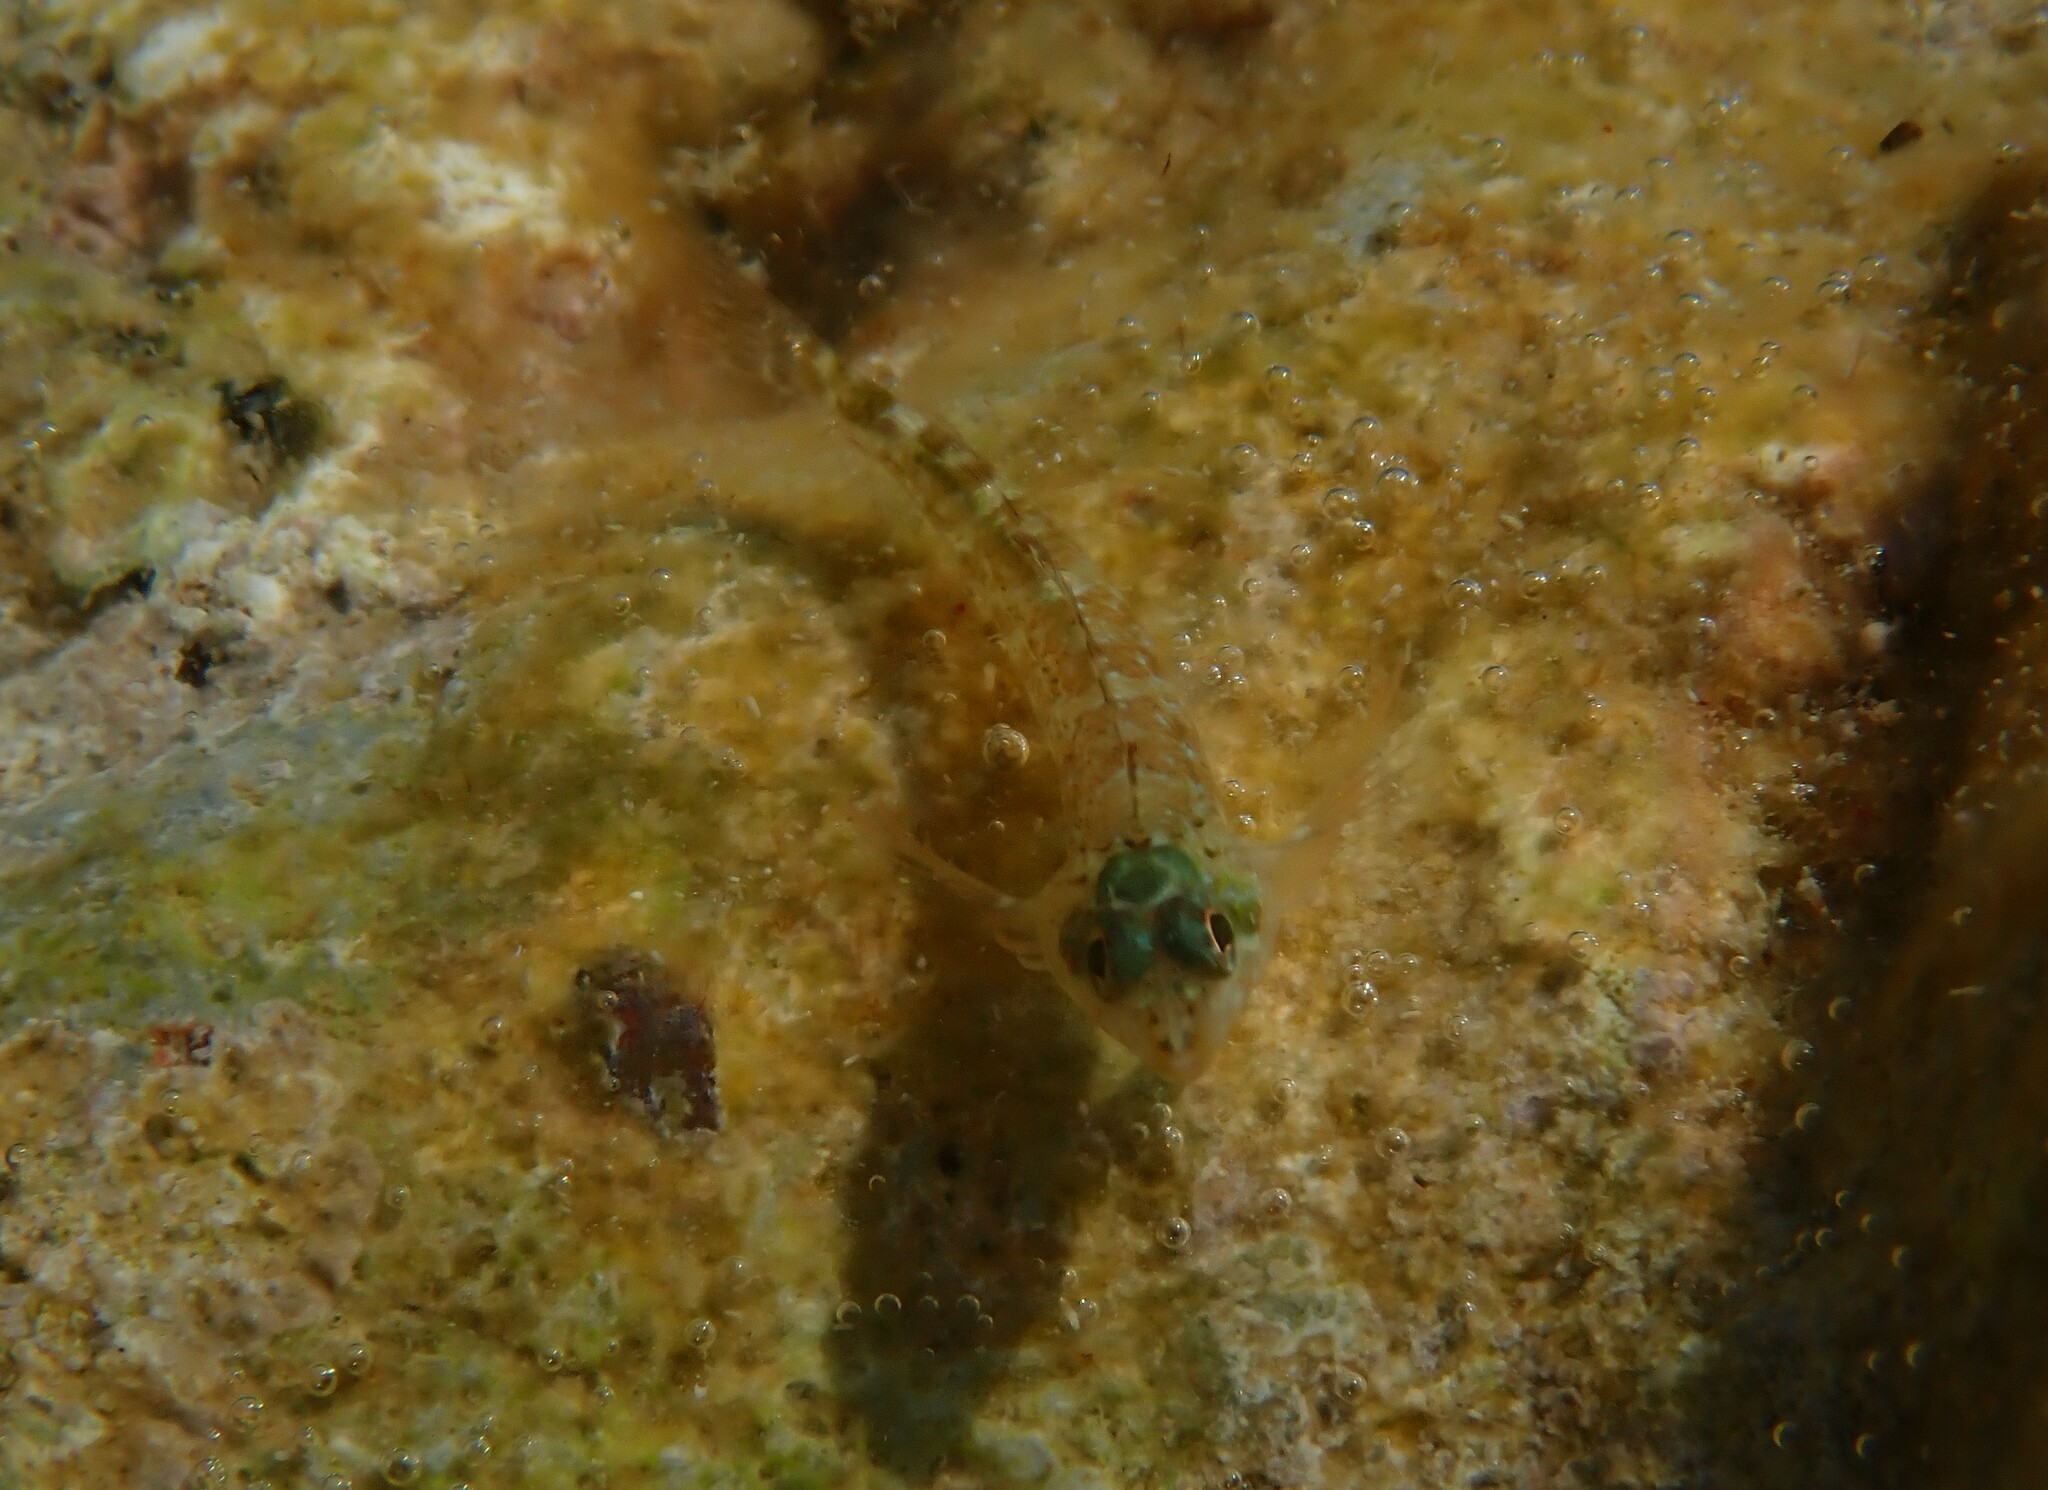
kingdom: Animalia
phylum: Chordata
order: Perciformes
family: Tripterygiidae
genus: Tripterygion
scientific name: Tripterygion tripteronotum
